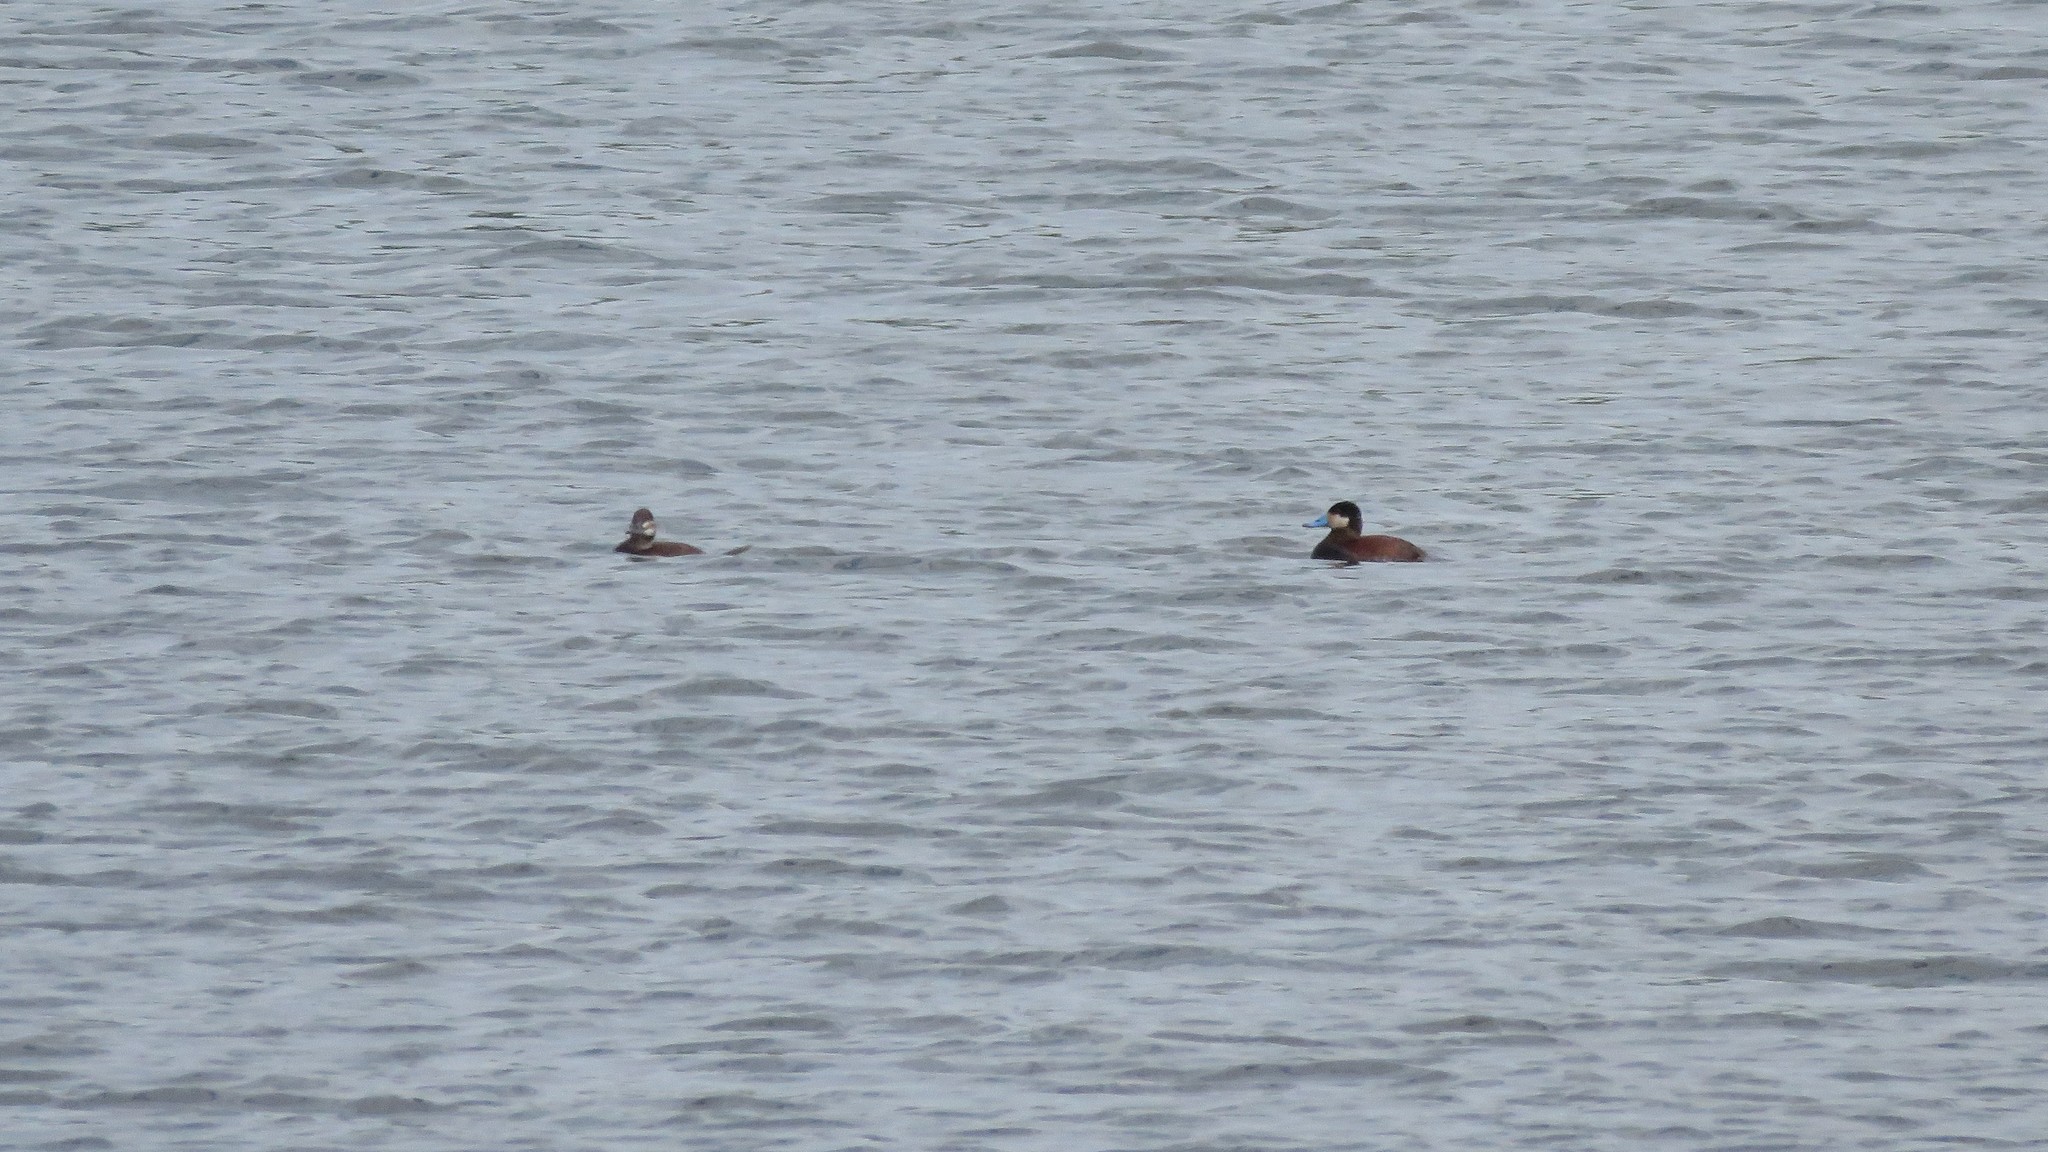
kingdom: Animalia
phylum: Chordata
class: Aves
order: Anseriformes
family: Anatidae
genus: Oxyura
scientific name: Oxyura jamaicensis
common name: Ruddy duck
